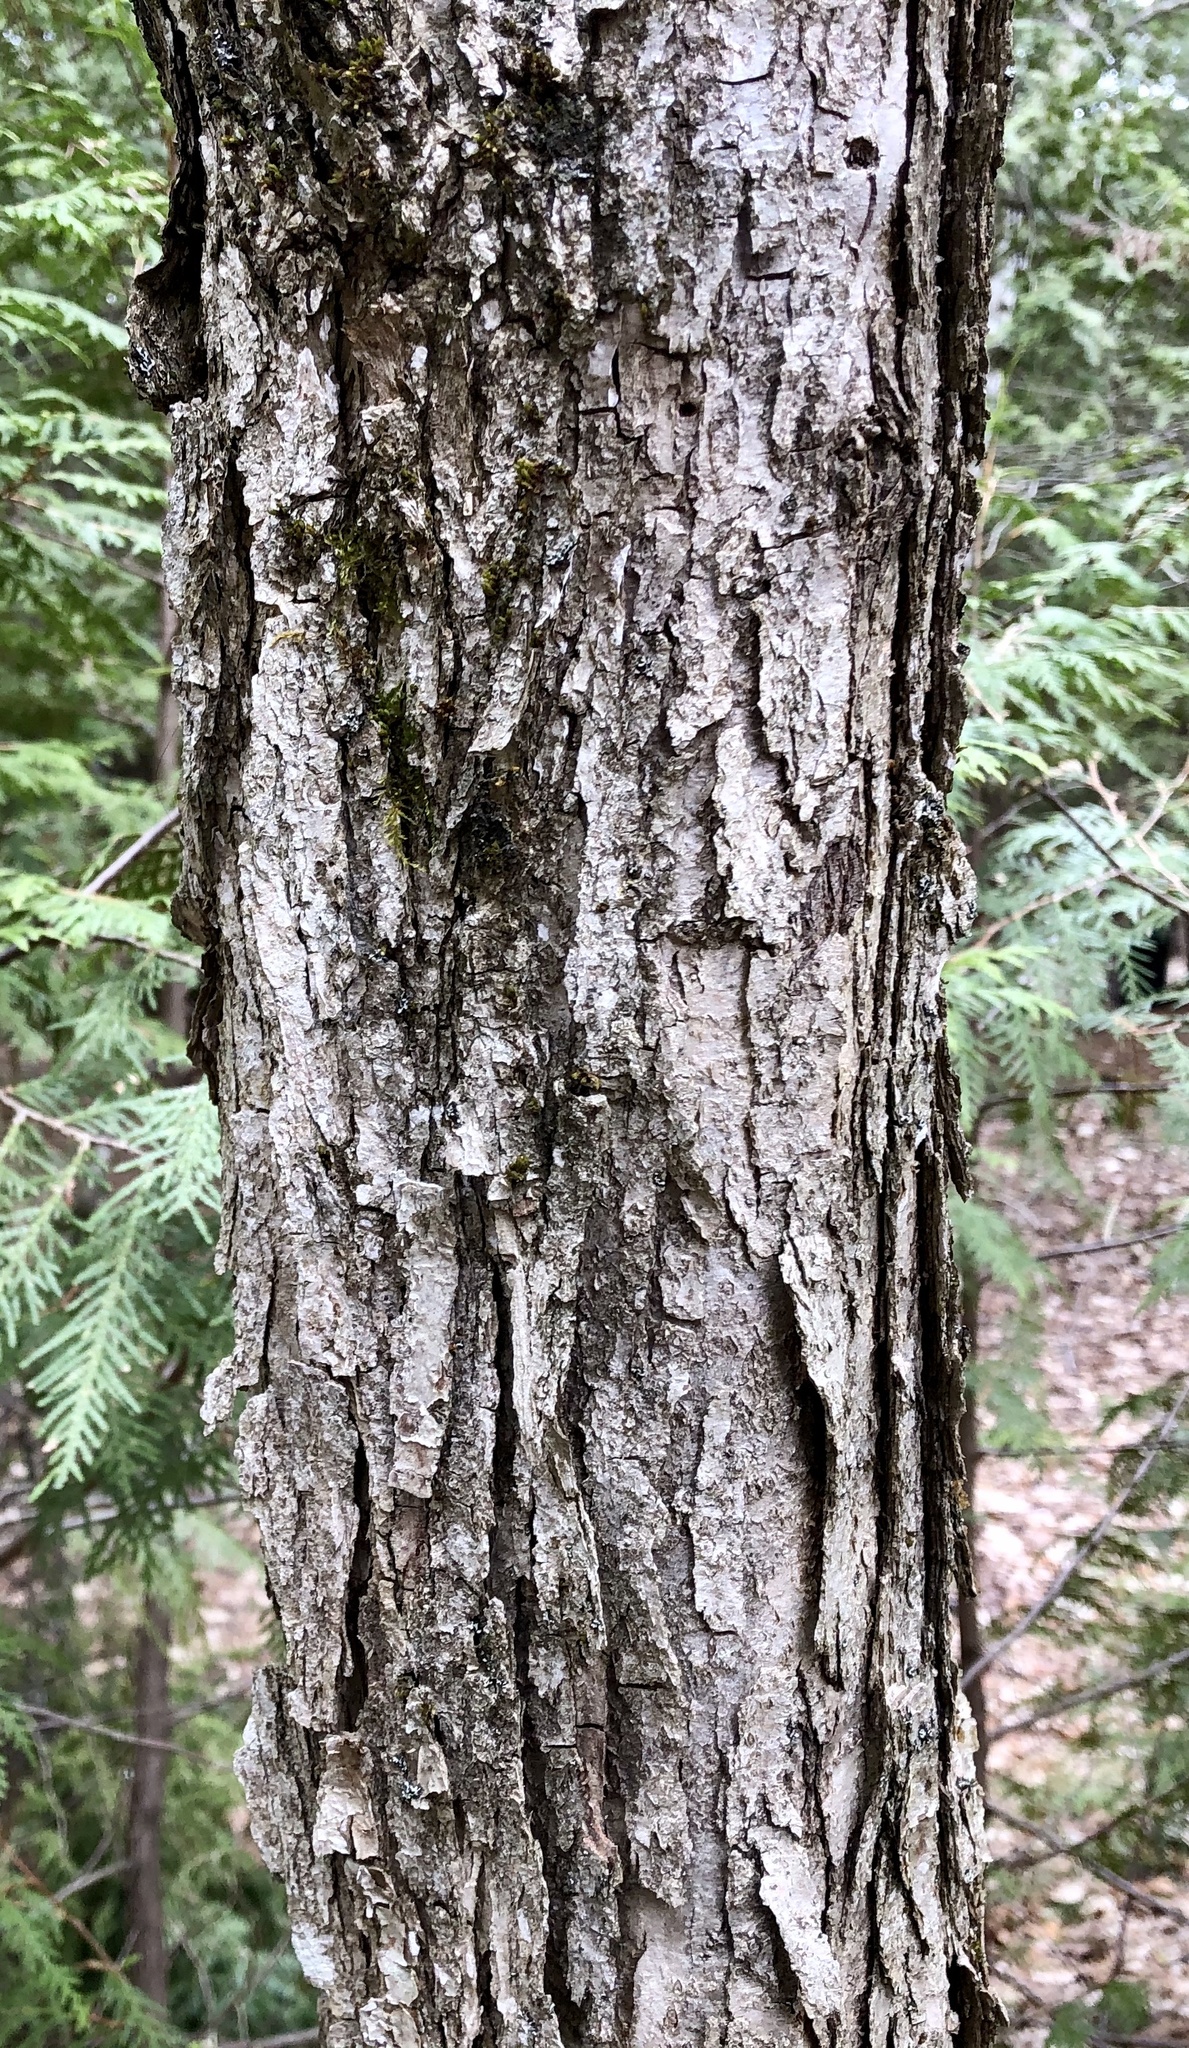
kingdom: Plantae
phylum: Tracheophyta
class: Magnoliopsida
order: Fagales
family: Fagaceae
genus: Quercus
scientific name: Quercus macrocarpa
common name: Bur oak
